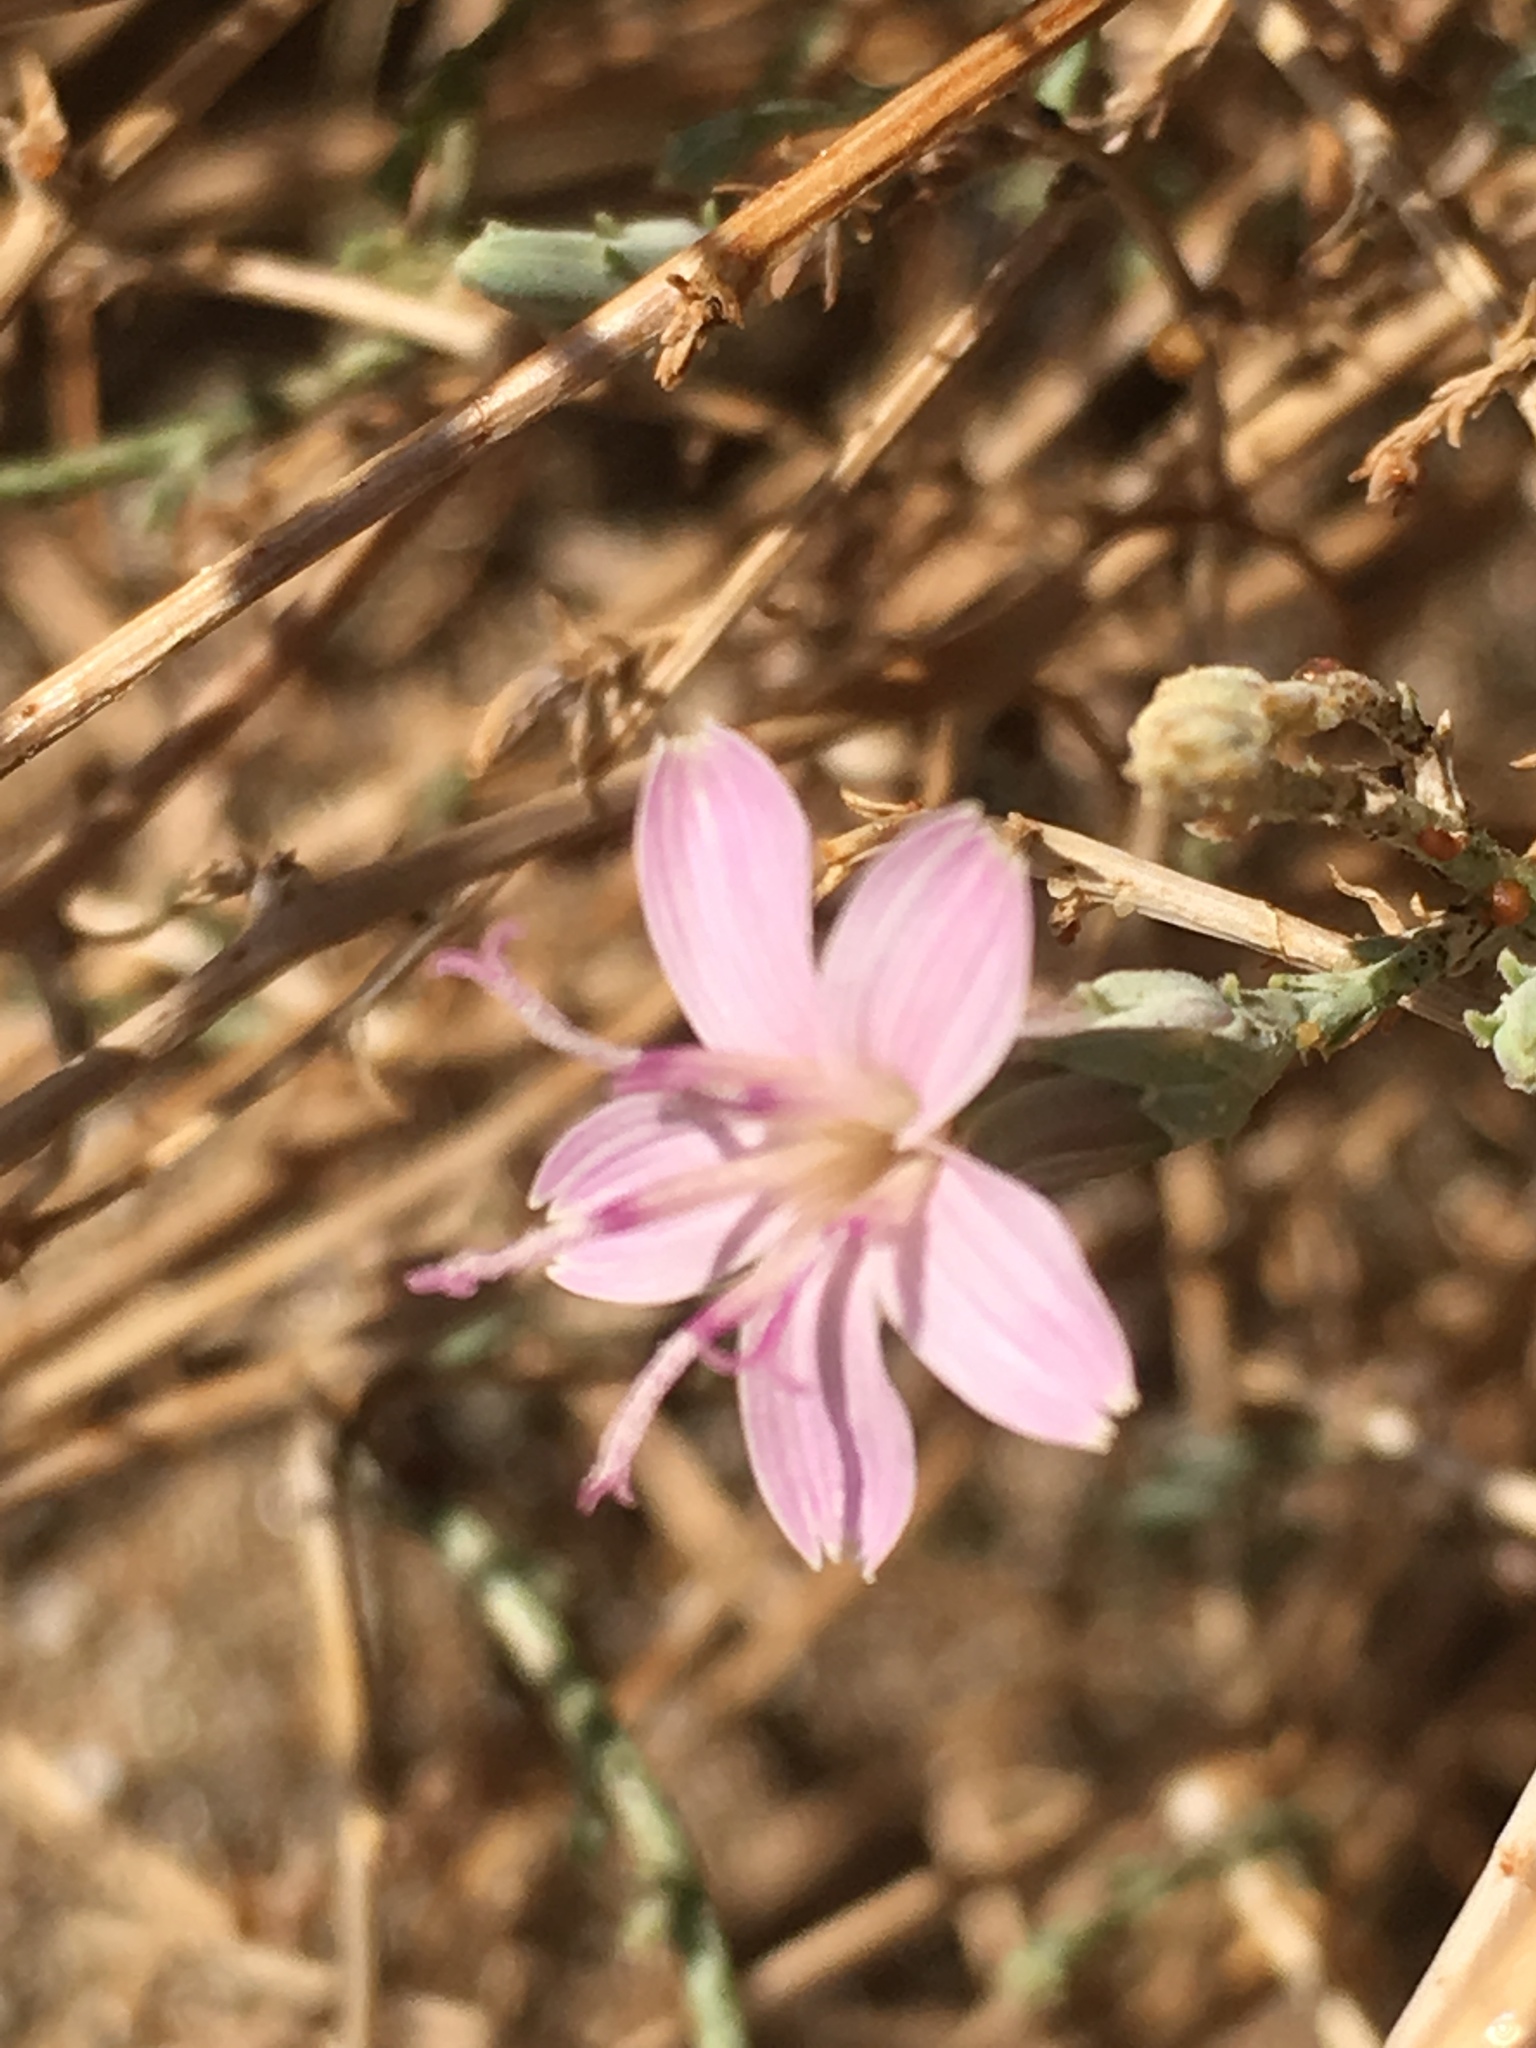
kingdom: Plantae
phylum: Tracheophyta
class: Magnoliopsida
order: Asterales
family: Asteraceae
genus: Stephanomeria
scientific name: Stephanomeria pauciflora
